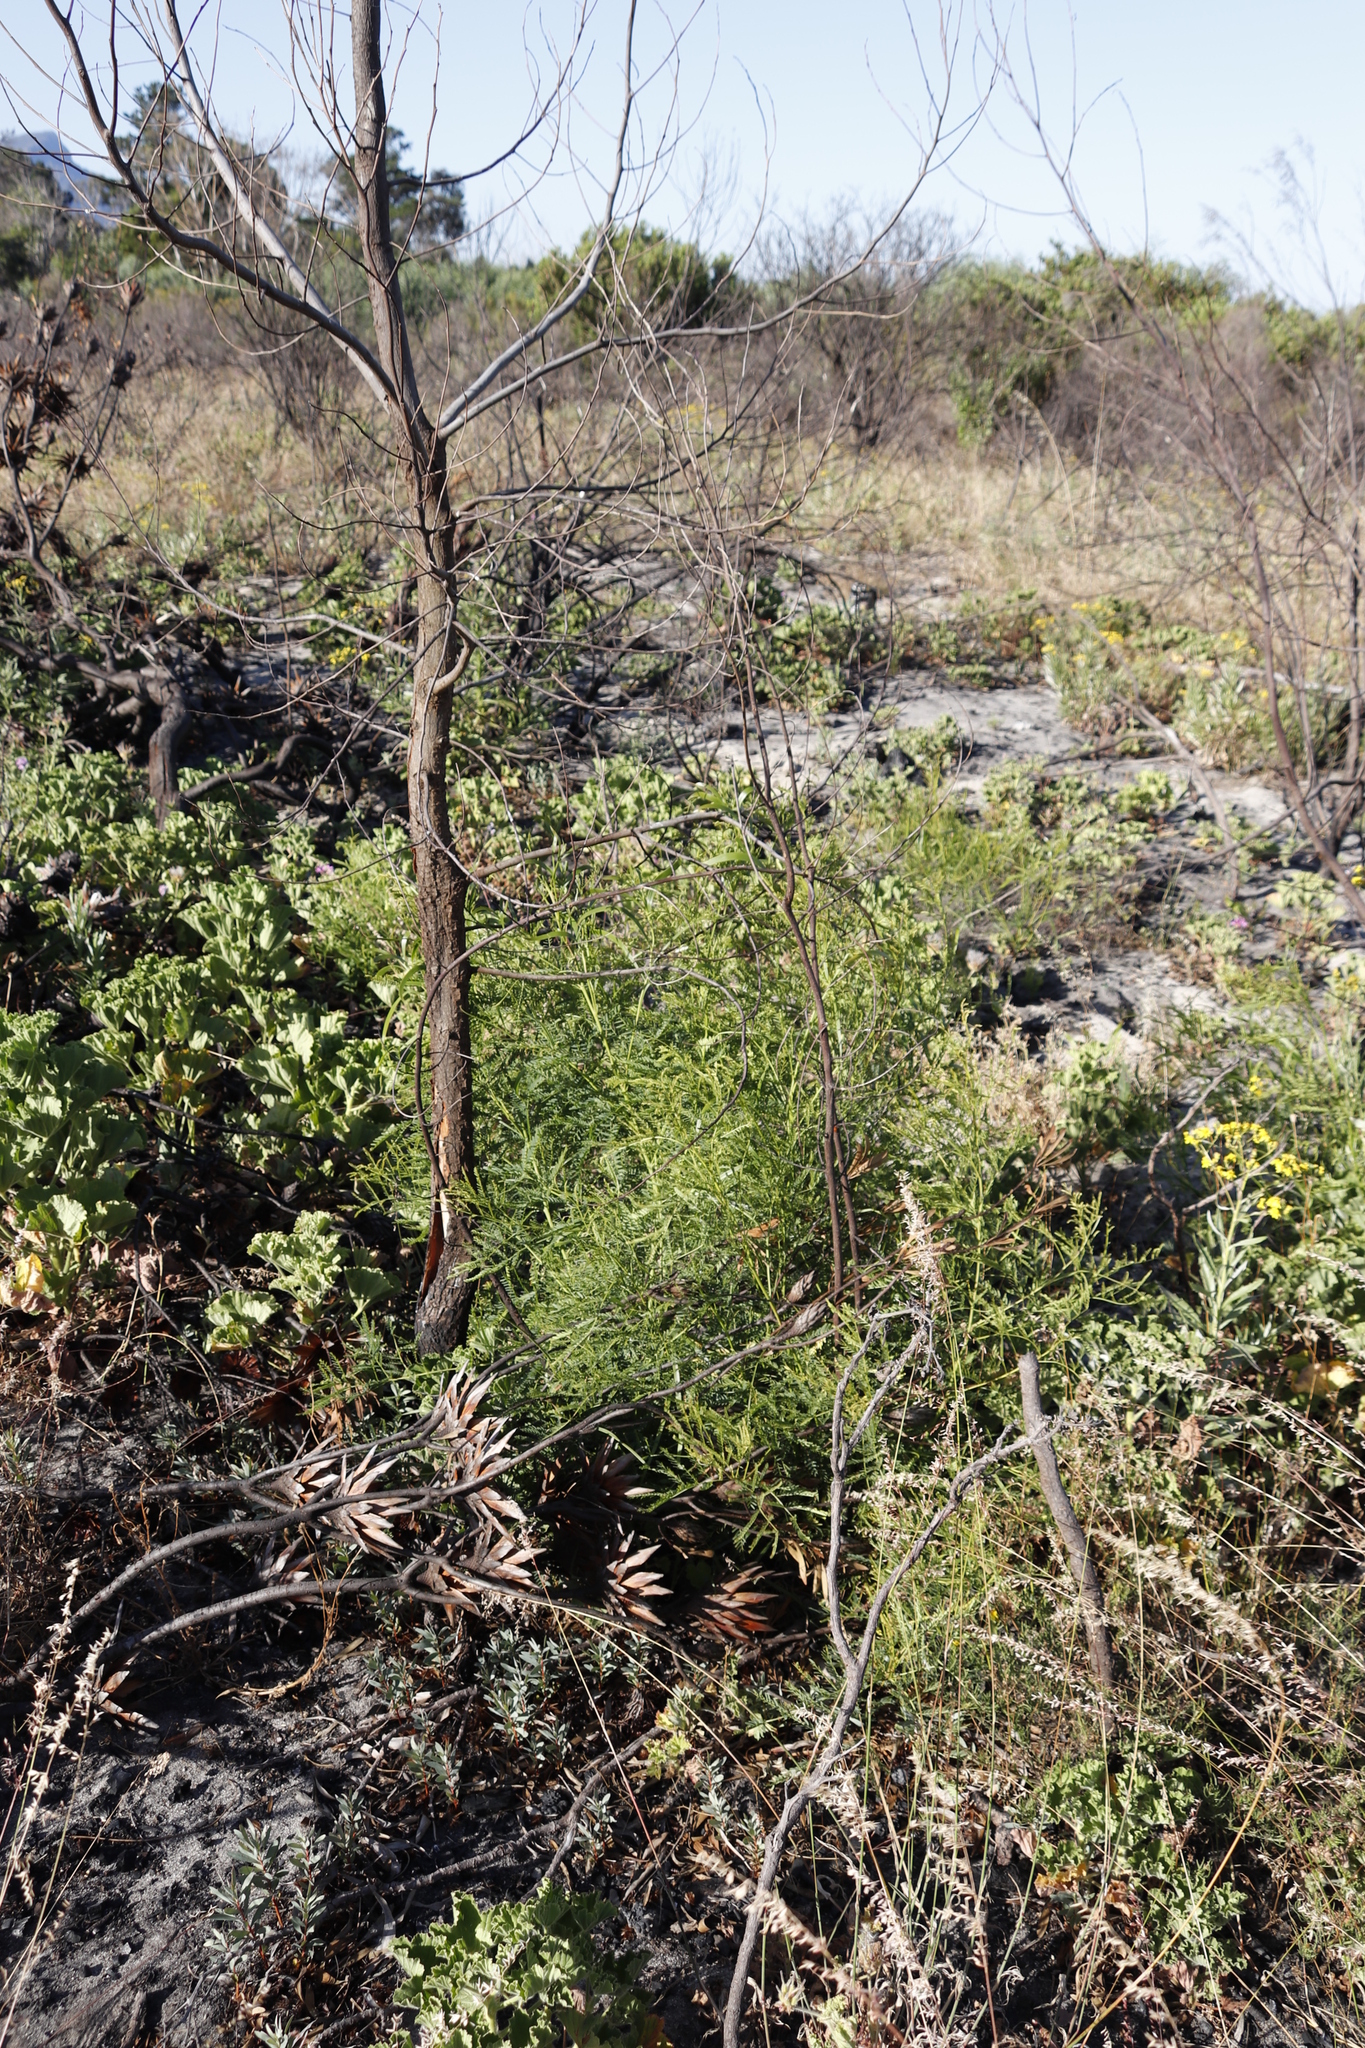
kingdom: Plantae
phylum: Tracheophyta
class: Magnoliopsida
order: Fabales
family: Fabaceae
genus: Acacia
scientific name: Acacia implexa
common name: Black wattle
